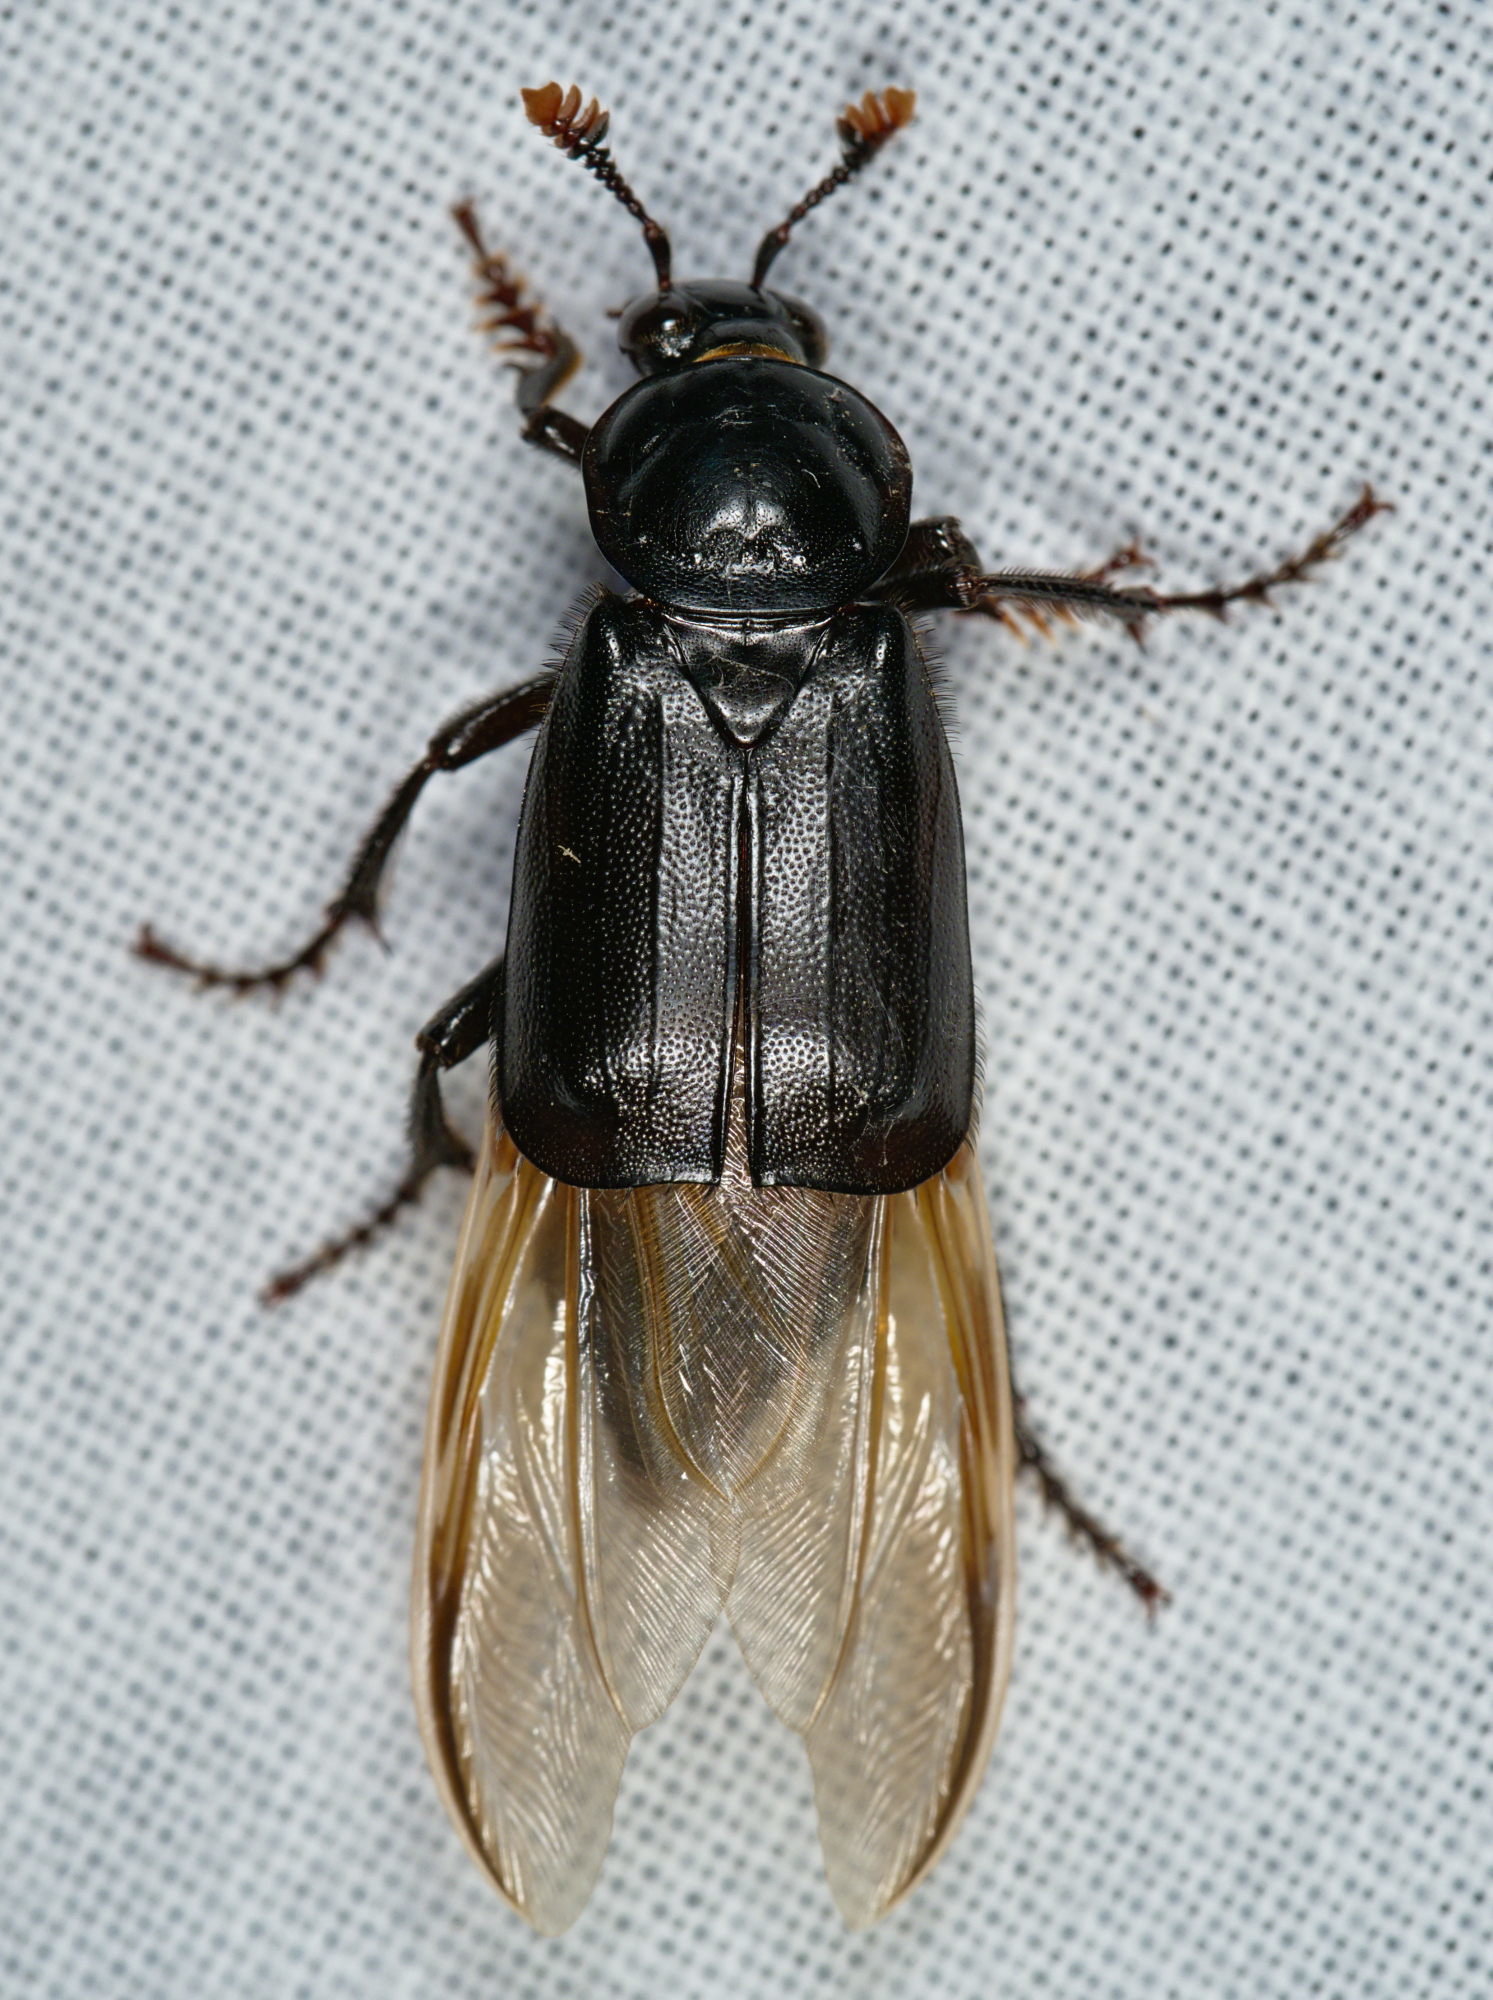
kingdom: Animalia
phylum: Arthropoda
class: Insecta
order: Coleoptera
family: Staphylinidae
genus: Nicrophorus
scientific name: Nicrophorus humator
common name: Black sexton beetle
